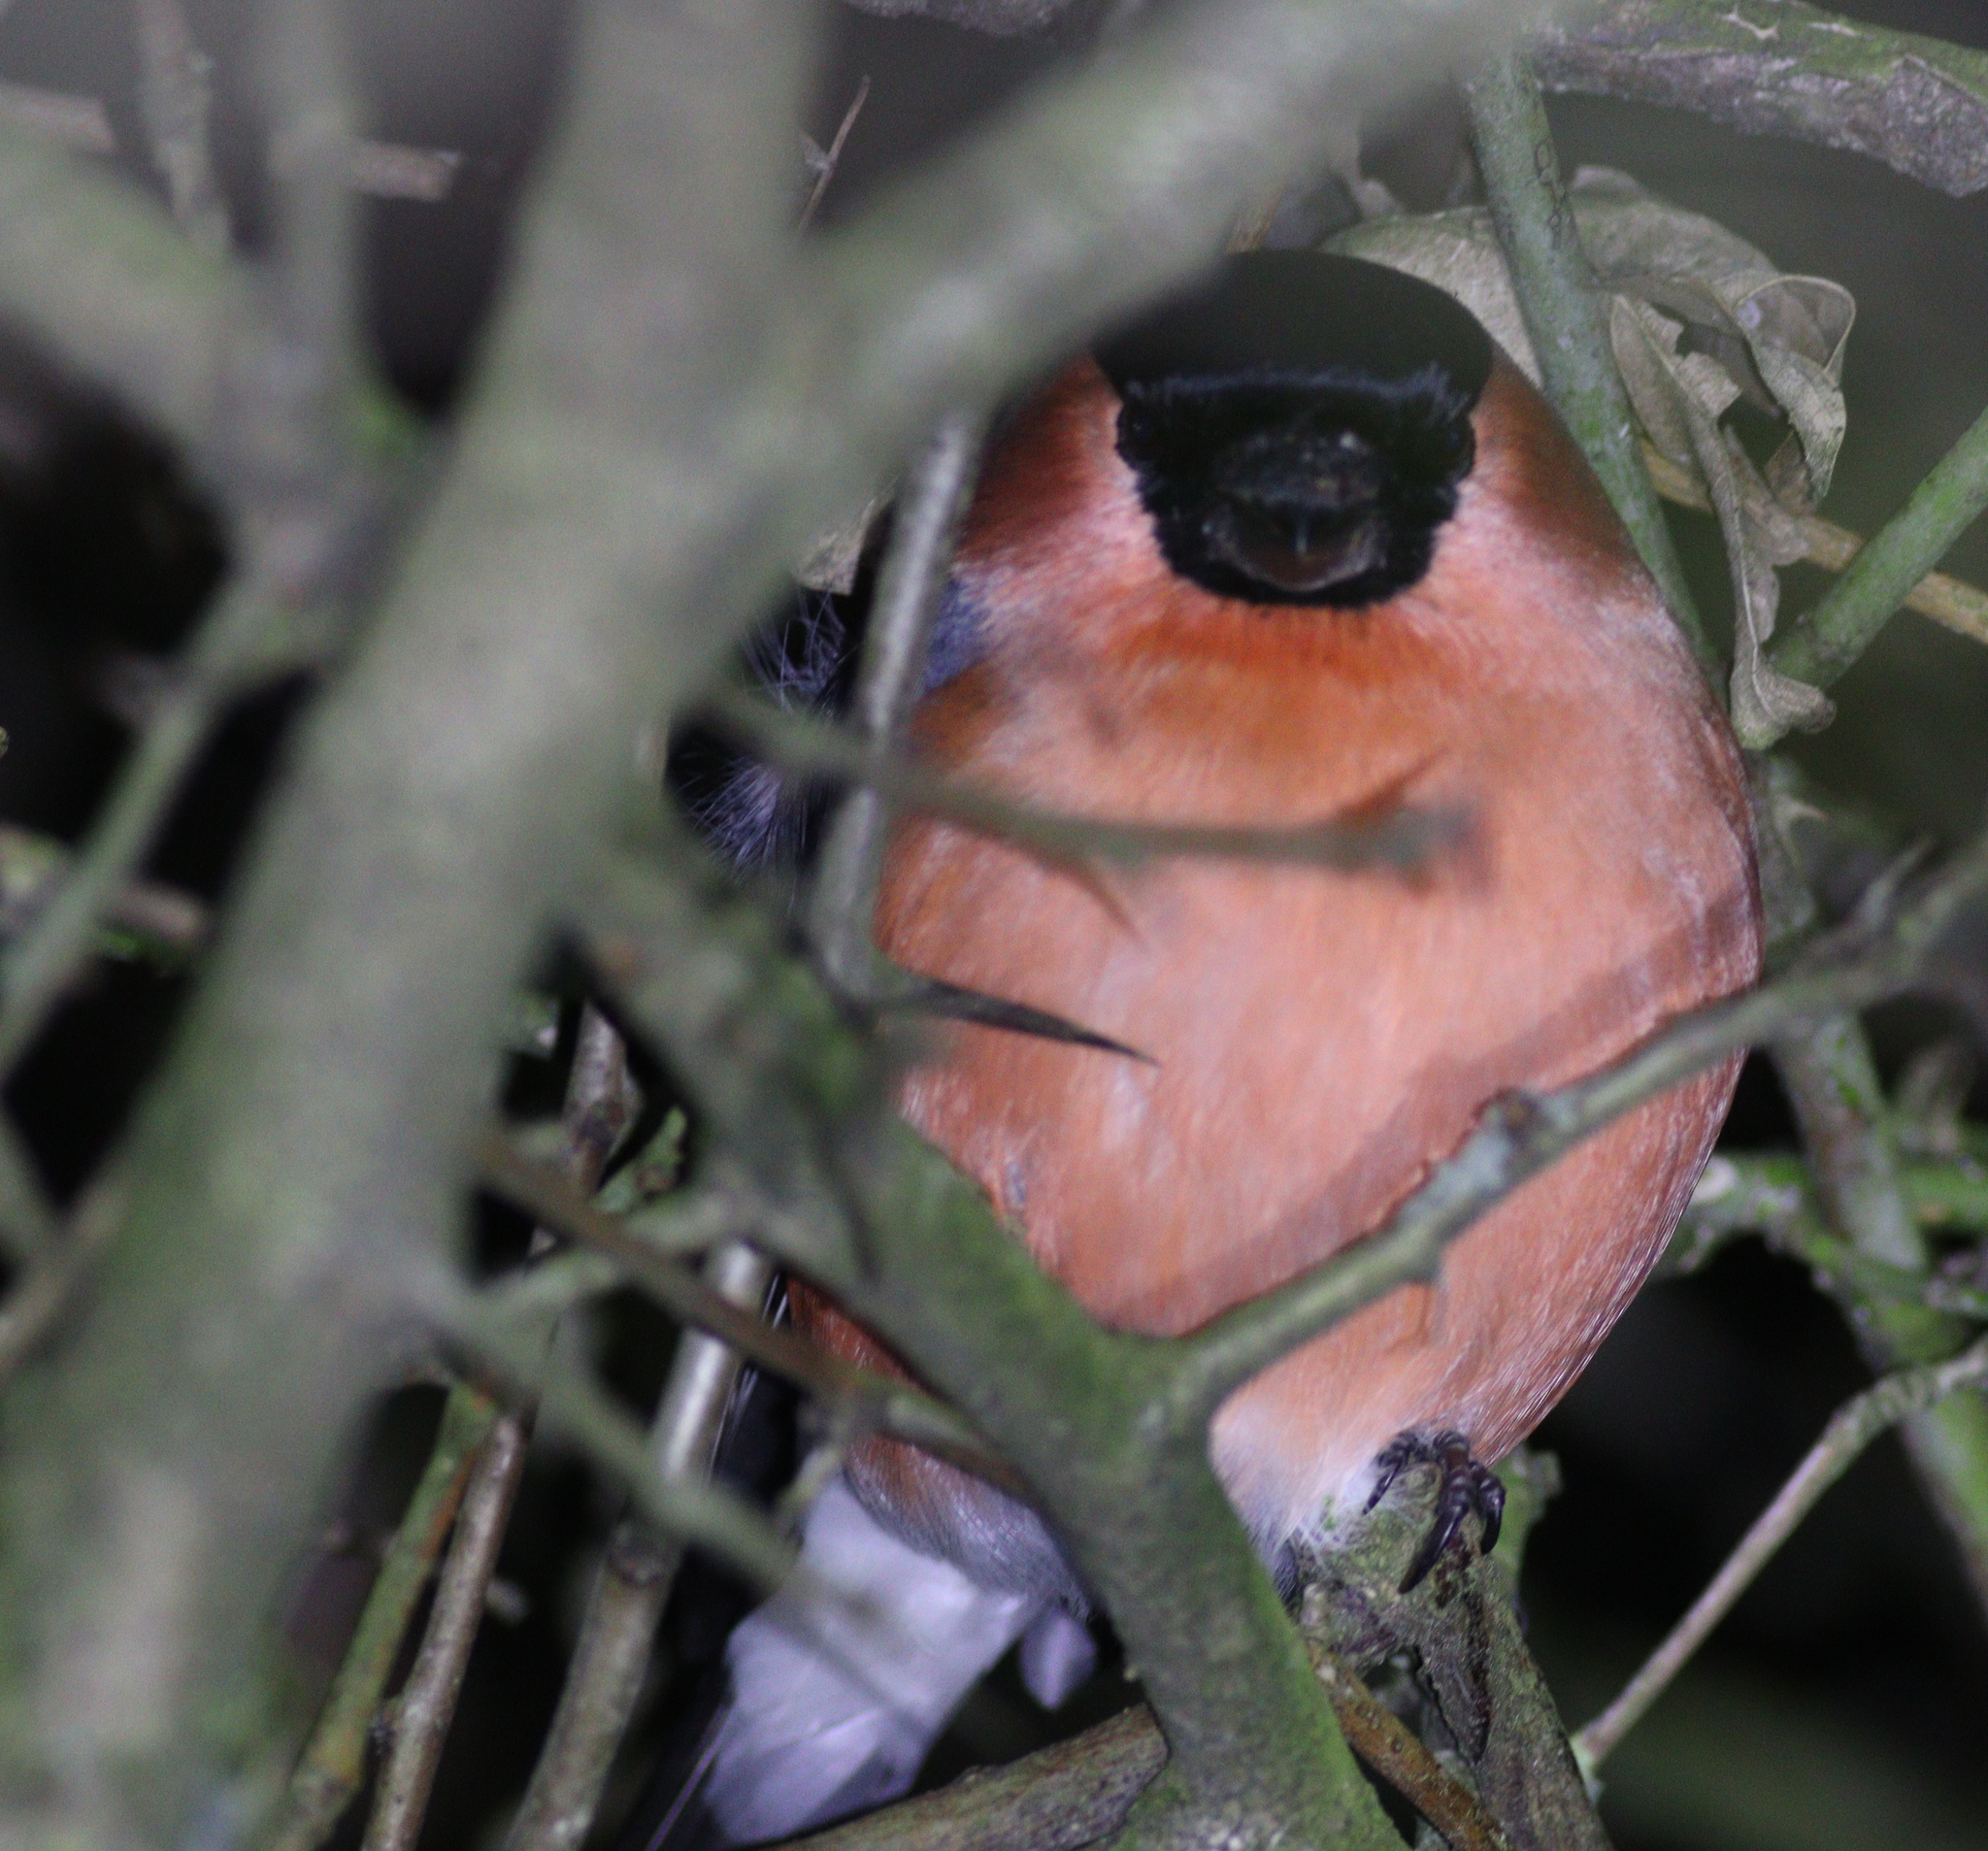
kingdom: Animalia
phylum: Chordata
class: Aves
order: Passeriformes
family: Fringillidae
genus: Pyrrhula
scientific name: Pyrrhula pyrrhula
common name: Eurasian bullfinch
